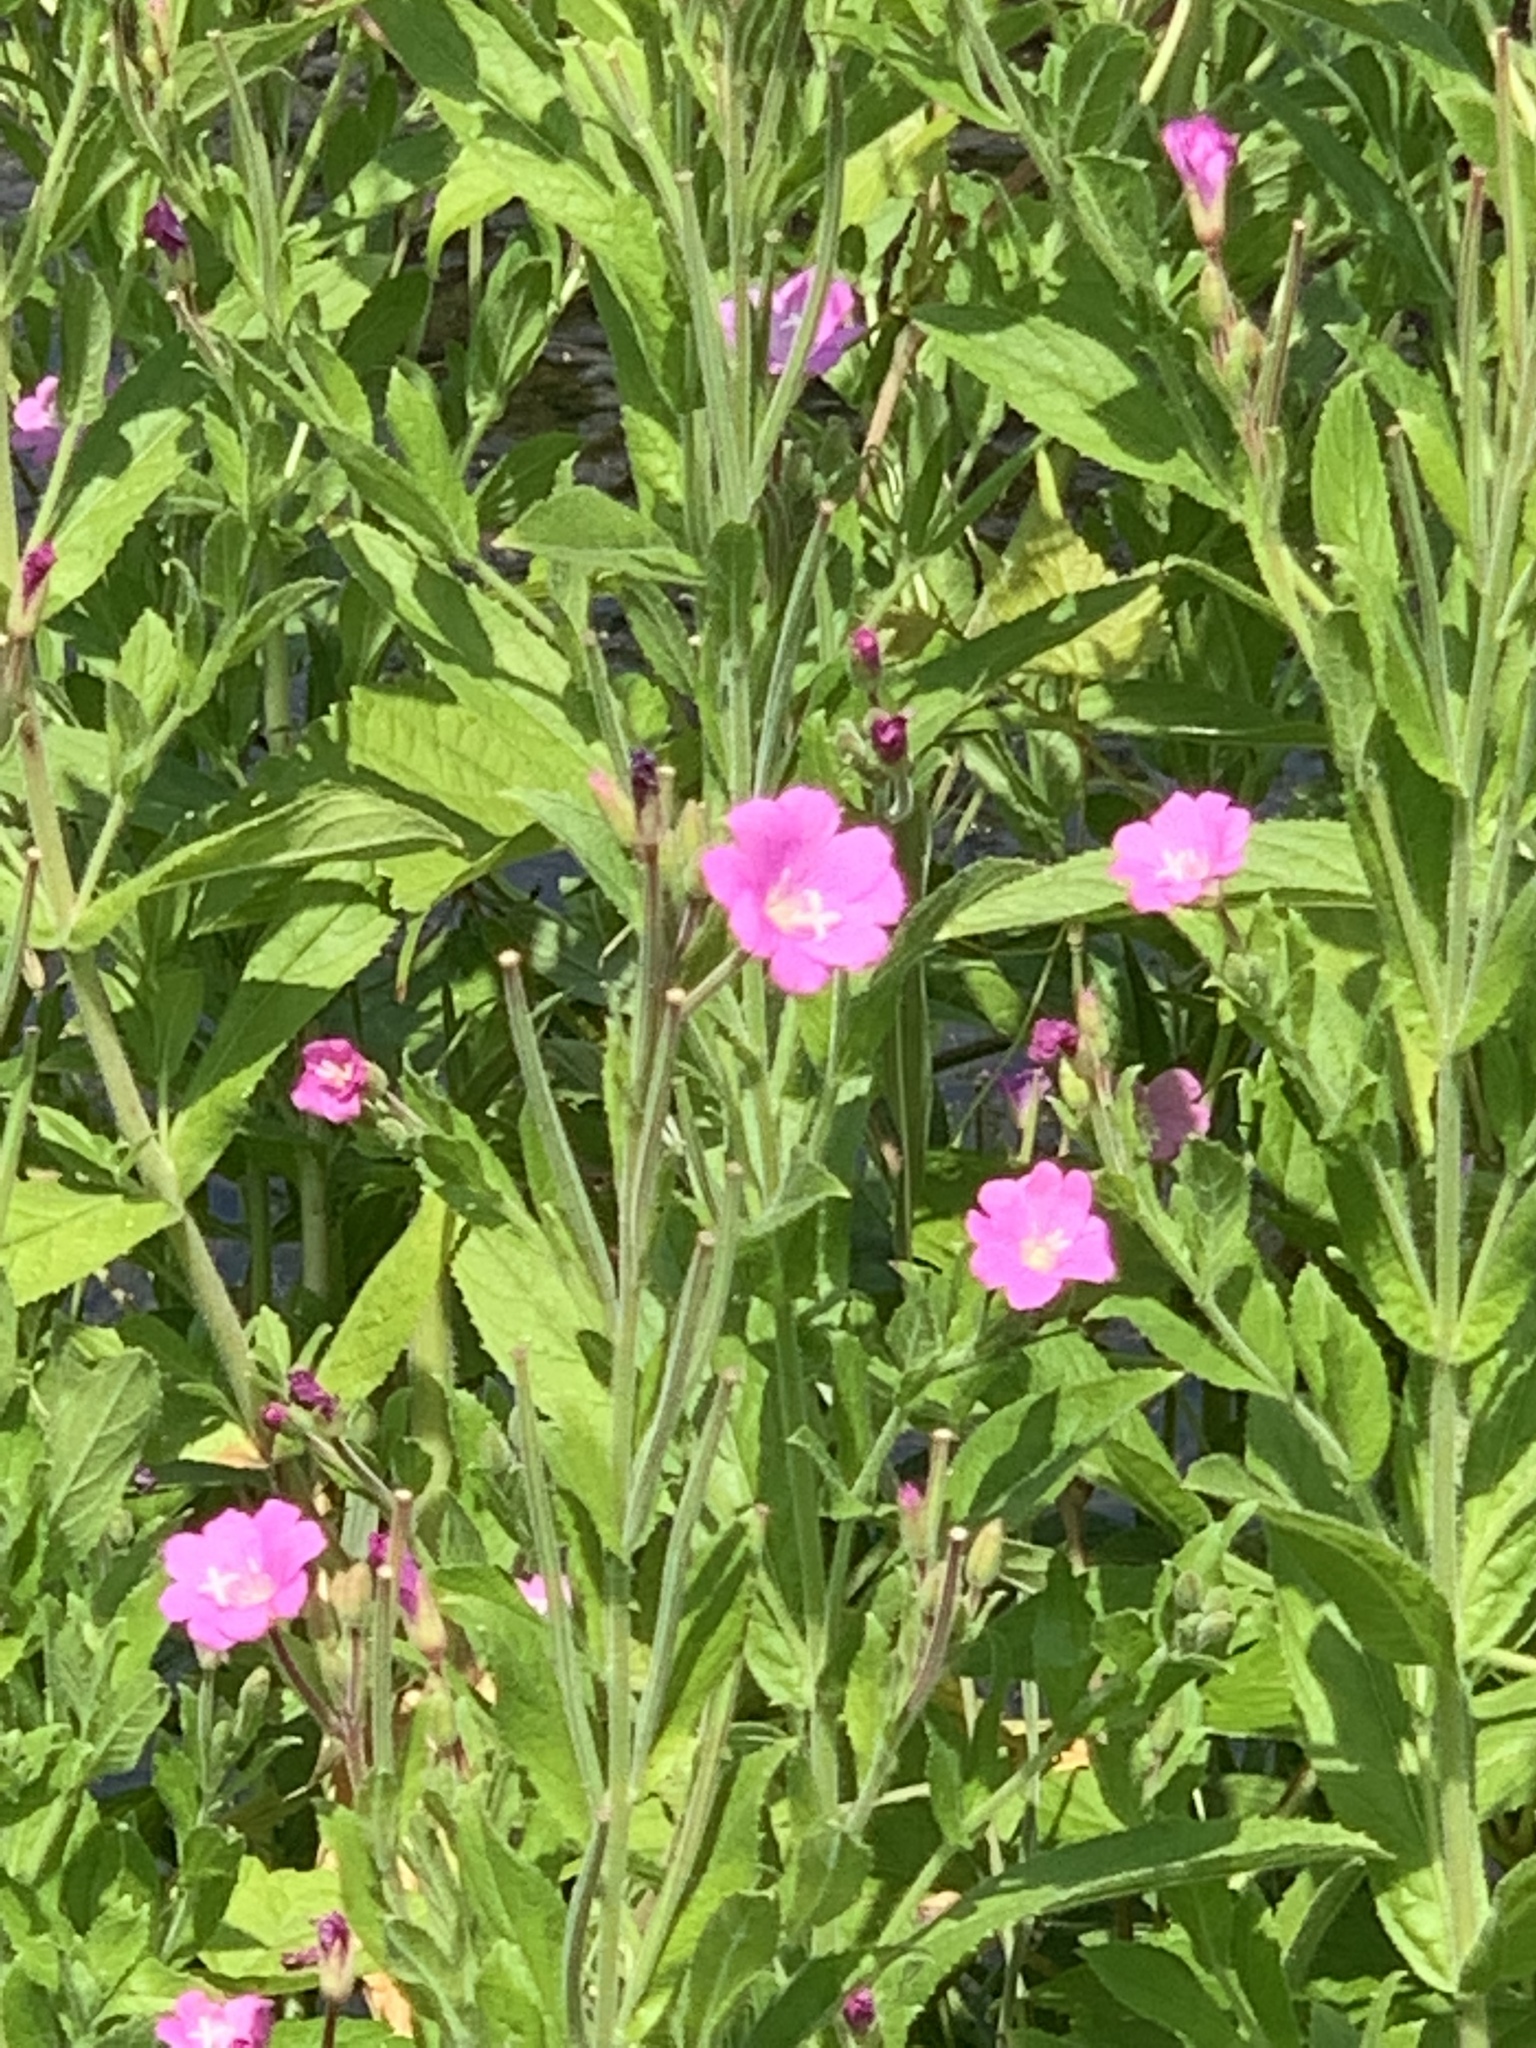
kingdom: Plantae
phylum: Tracheophyta
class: Magnoliopsida
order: Myrtales
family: Onagraceae
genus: Epilobium
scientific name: Epilobium hirsutum
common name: Great willowherb
